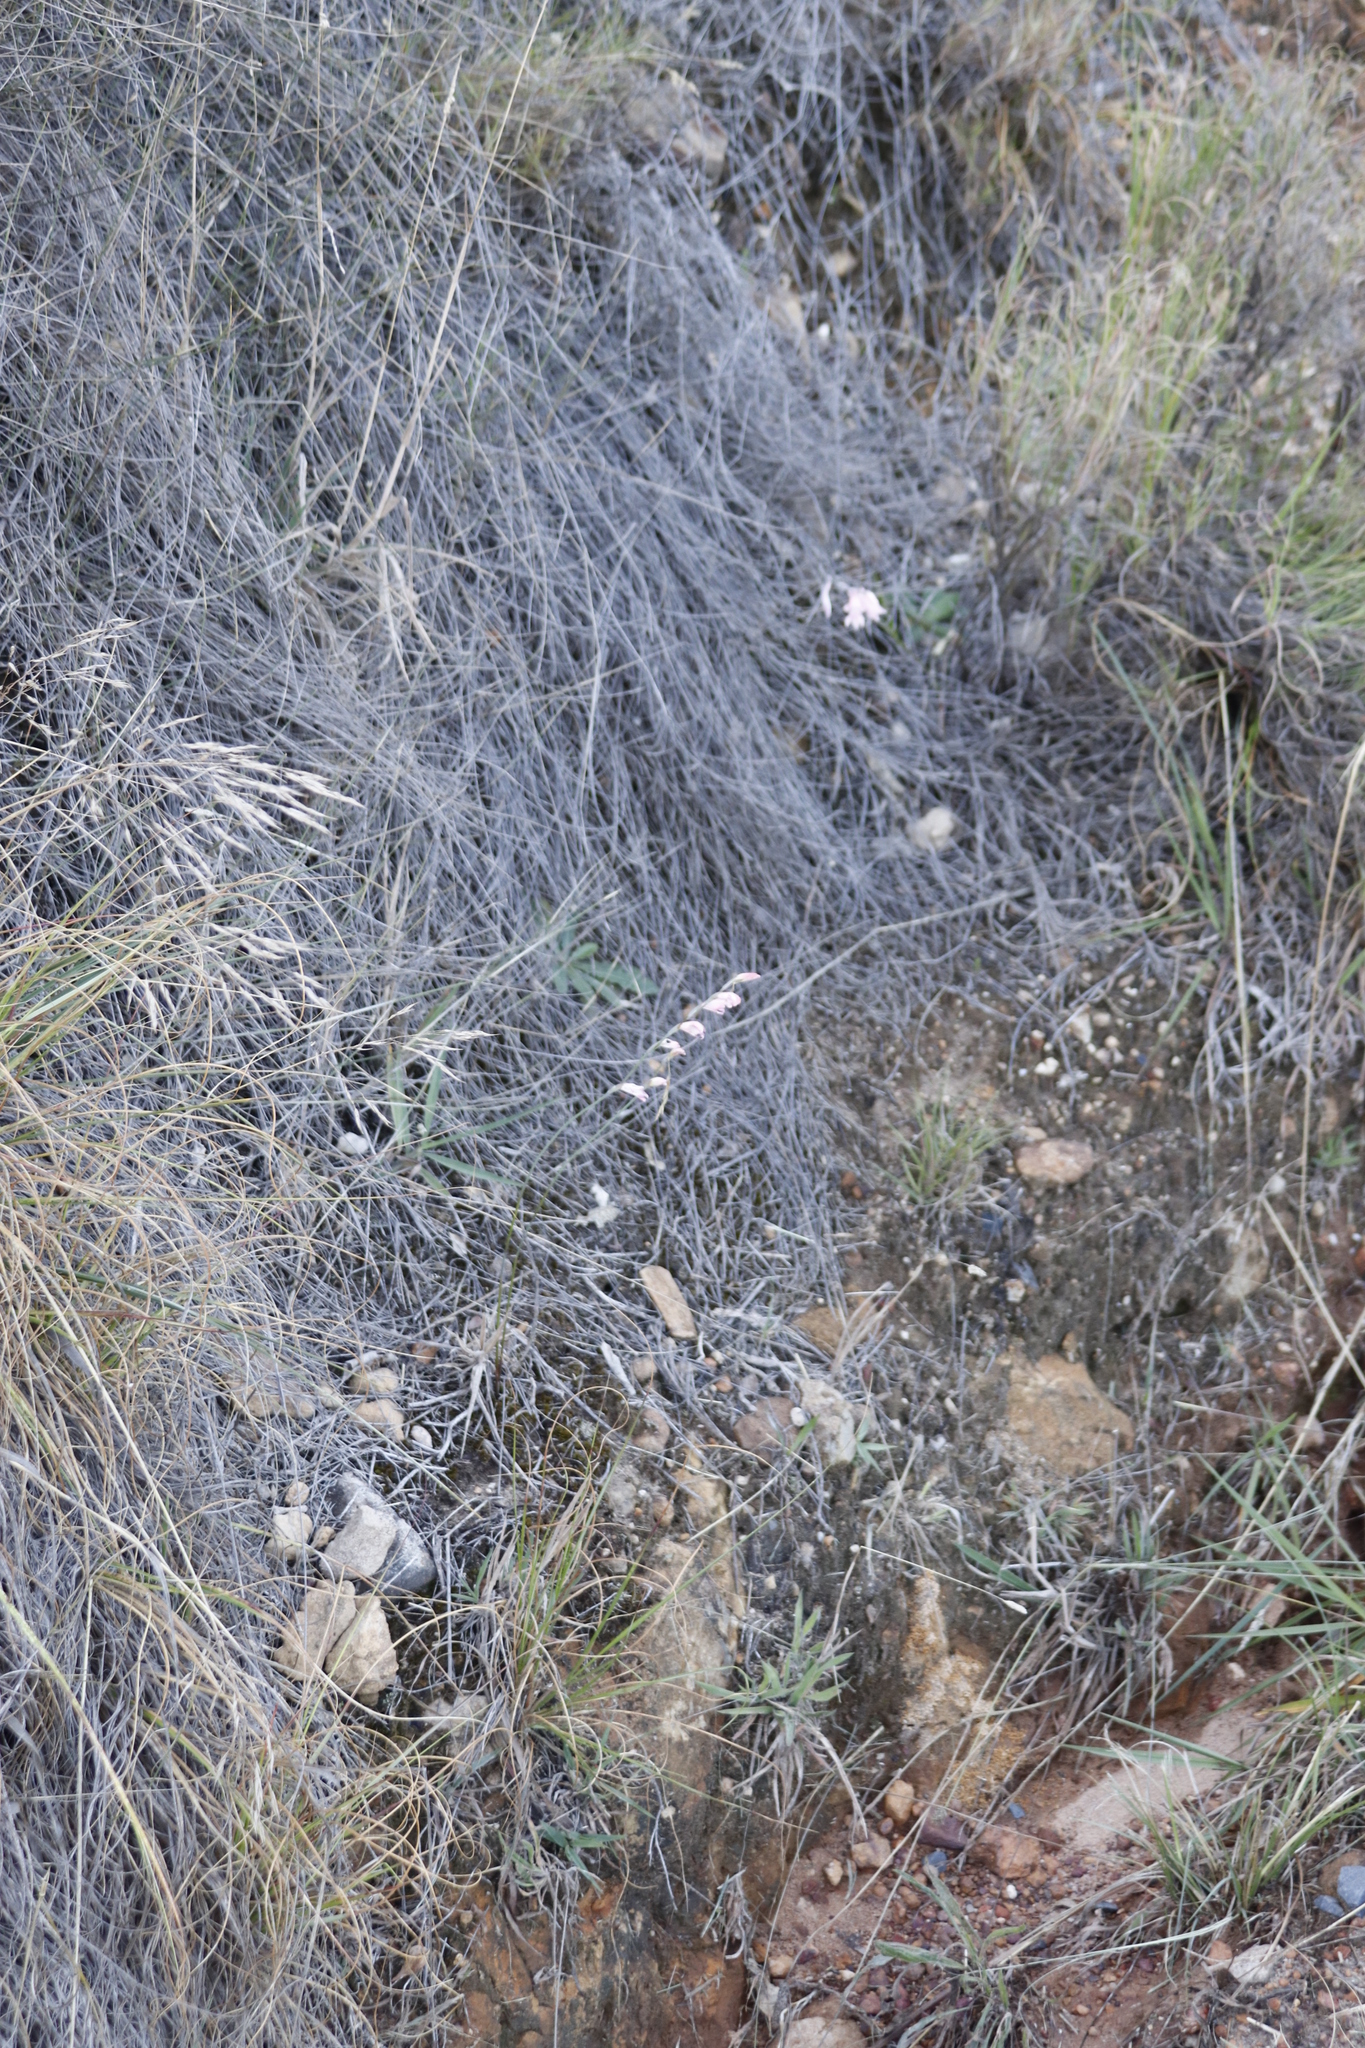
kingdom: Plantae
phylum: Tracheophyta
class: Liliopsida
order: Asparagales
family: Iridaceae
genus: Gladiolus
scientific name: Gladiolus brevifolius
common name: March pypie
